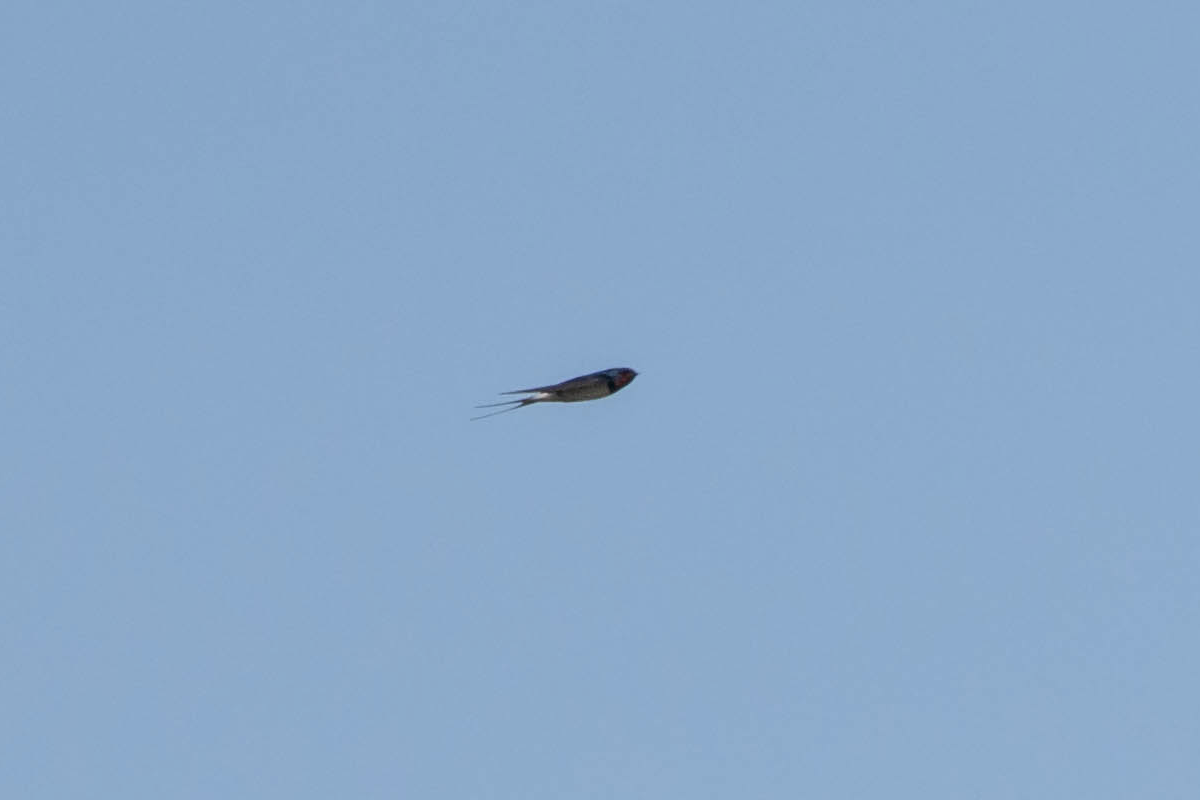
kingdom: Animalia
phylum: Chordata
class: Aves
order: Passeriformes
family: Hirundinidae
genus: Hirundo
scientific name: Hirundo rustica
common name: Barn swallow
